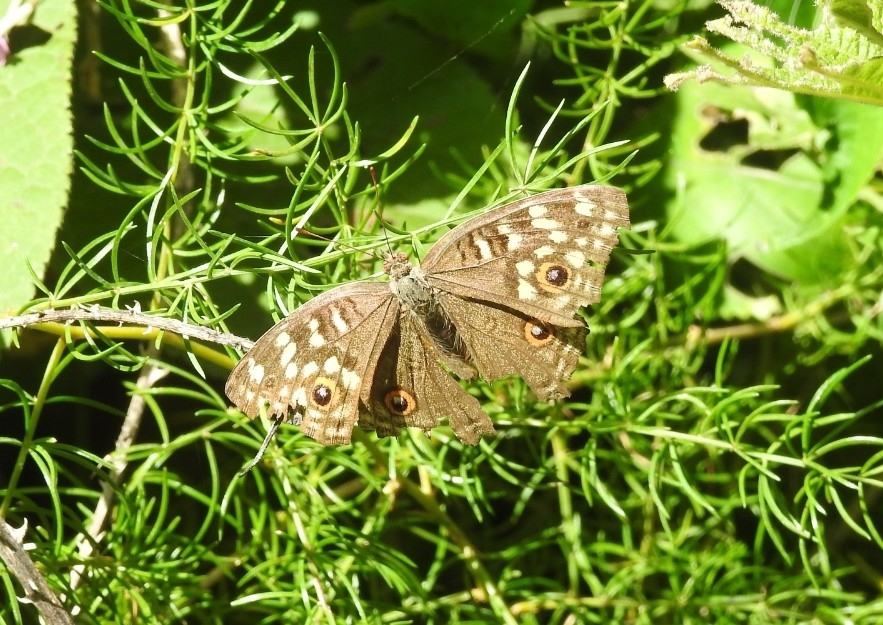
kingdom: Animalia
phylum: Arthropoda
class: Insecta
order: Lepidoptera
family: Nymphalidae
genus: Junonia
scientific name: Junonia lemonias
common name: Lemon pansy
